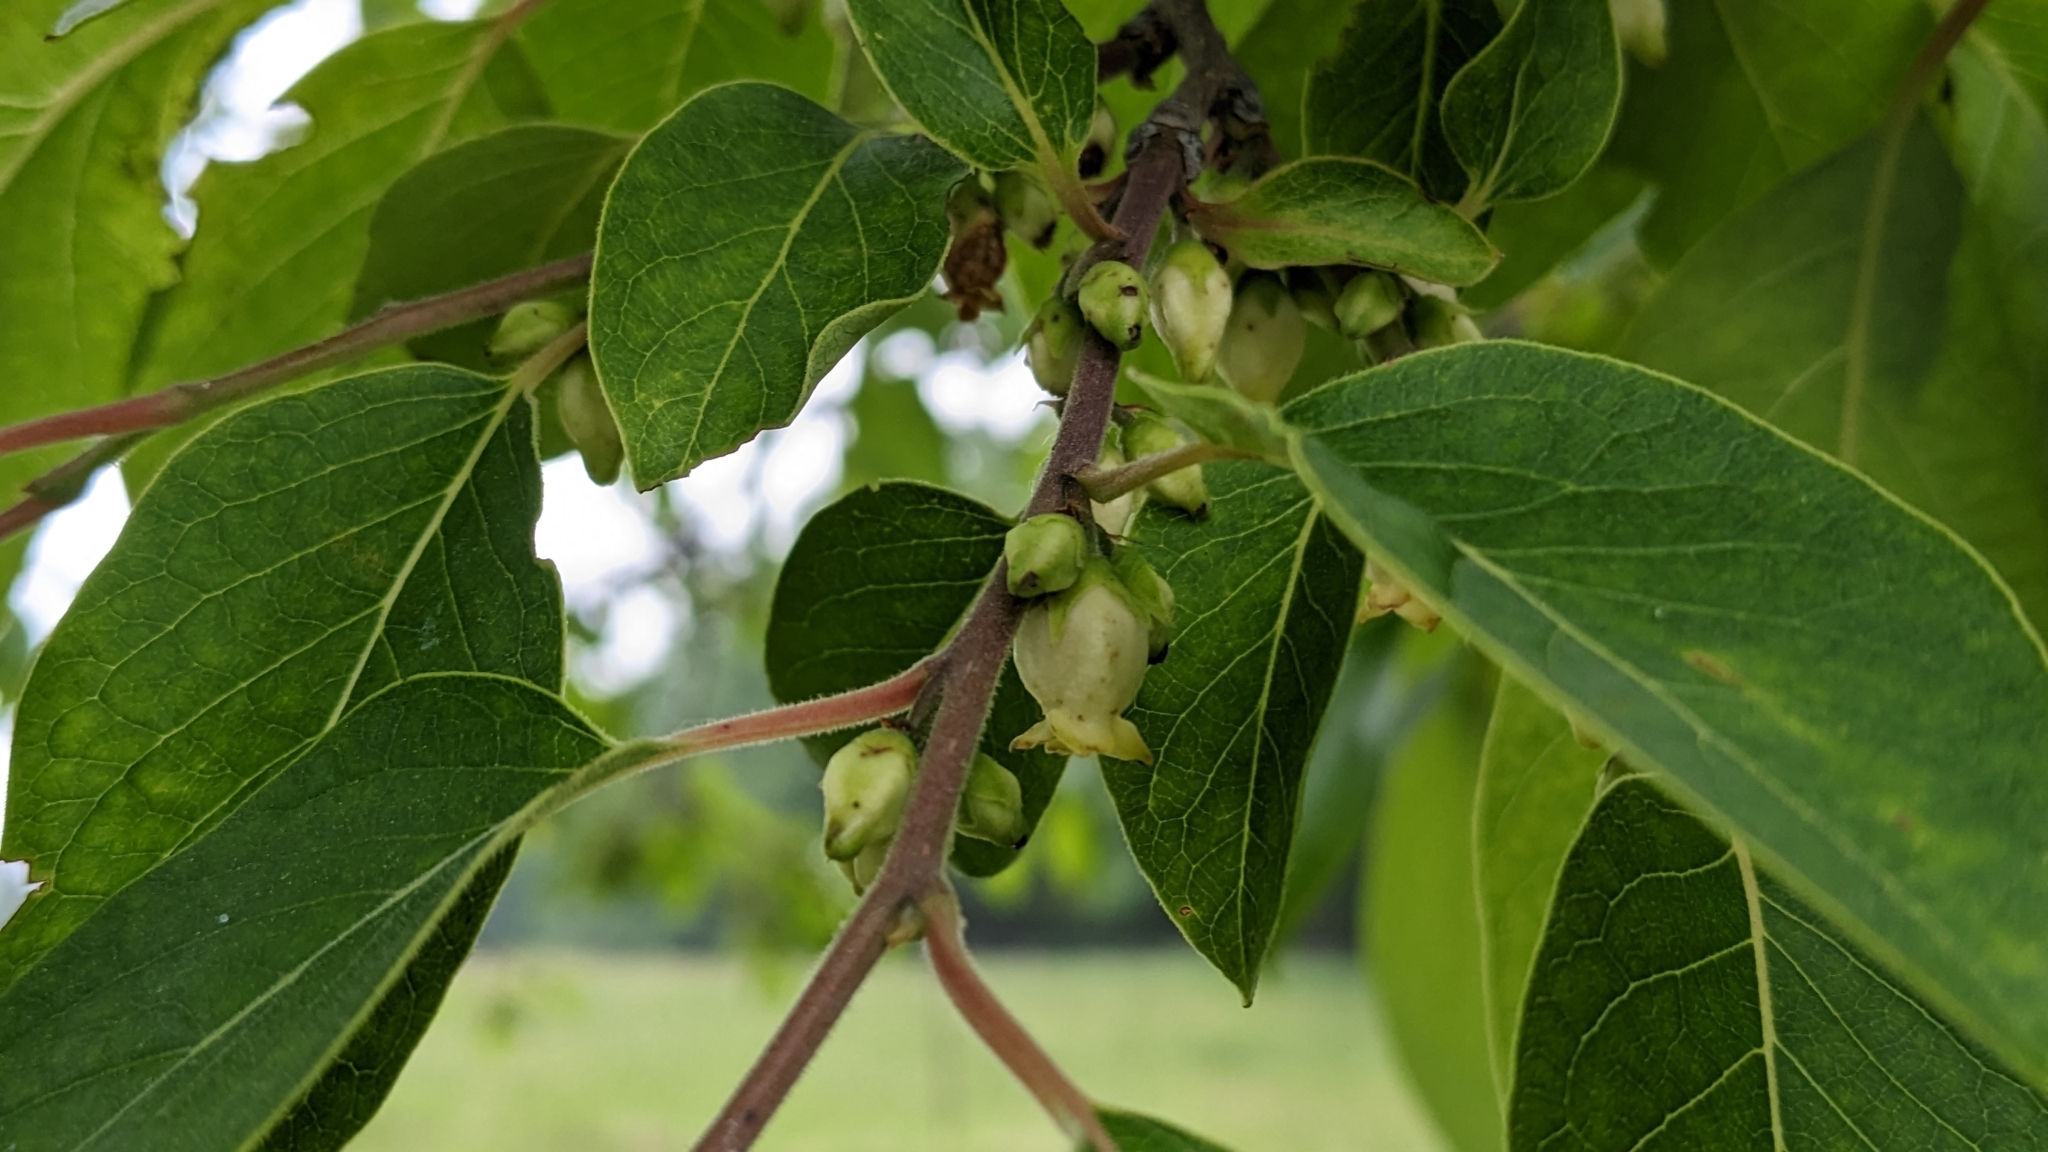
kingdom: Plantae
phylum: Tracheophyta
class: Magnoliopsida
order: Ericales
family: Ebenaceae
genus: Diospyros
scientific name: Diospyros virginiana
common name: Persimmon
